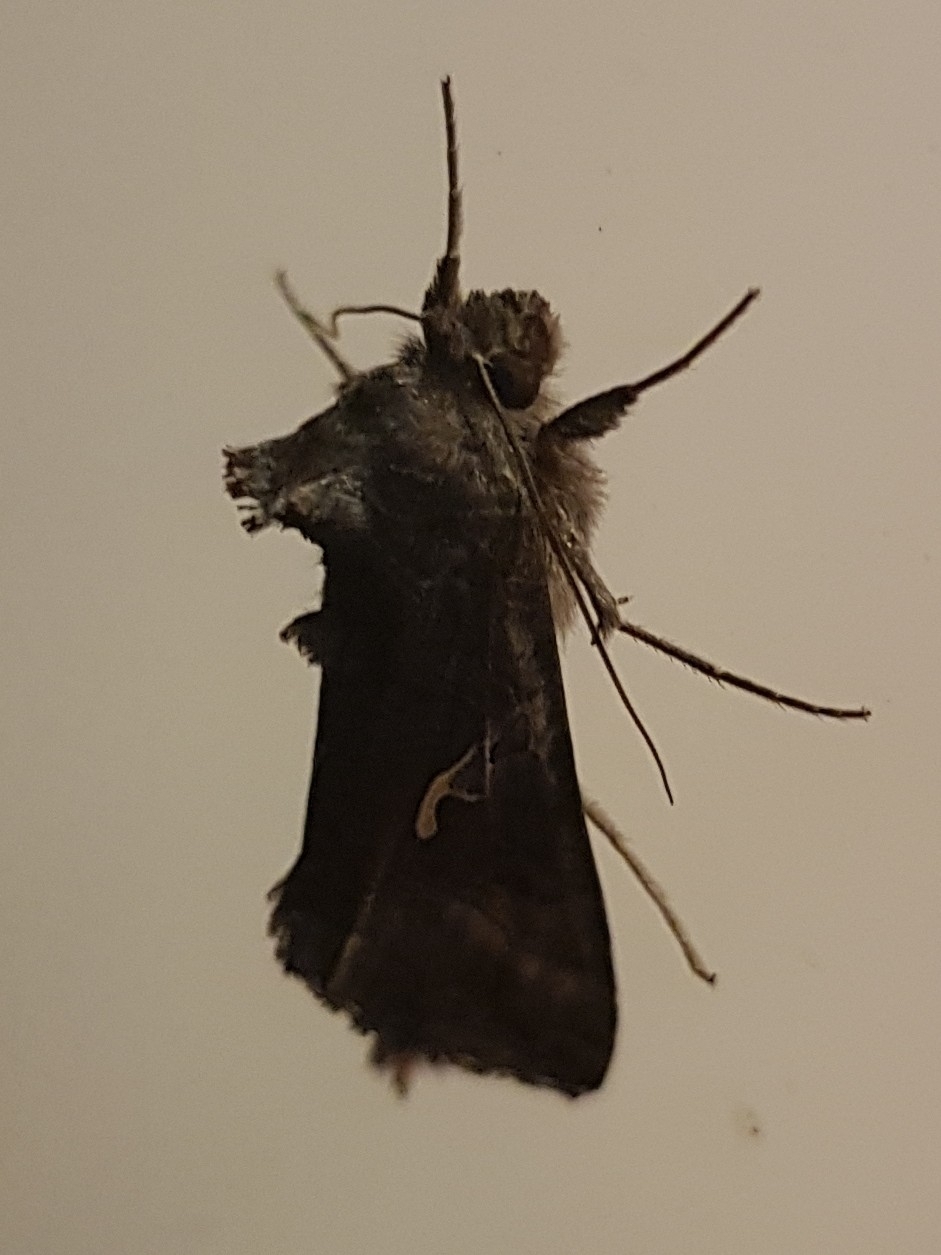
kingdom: Animalia
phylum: Arthropoda
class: Insecta
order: Lepidoptera
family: Noctuidae
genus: Autographa
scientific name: Autographa gamma
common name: Silver y
